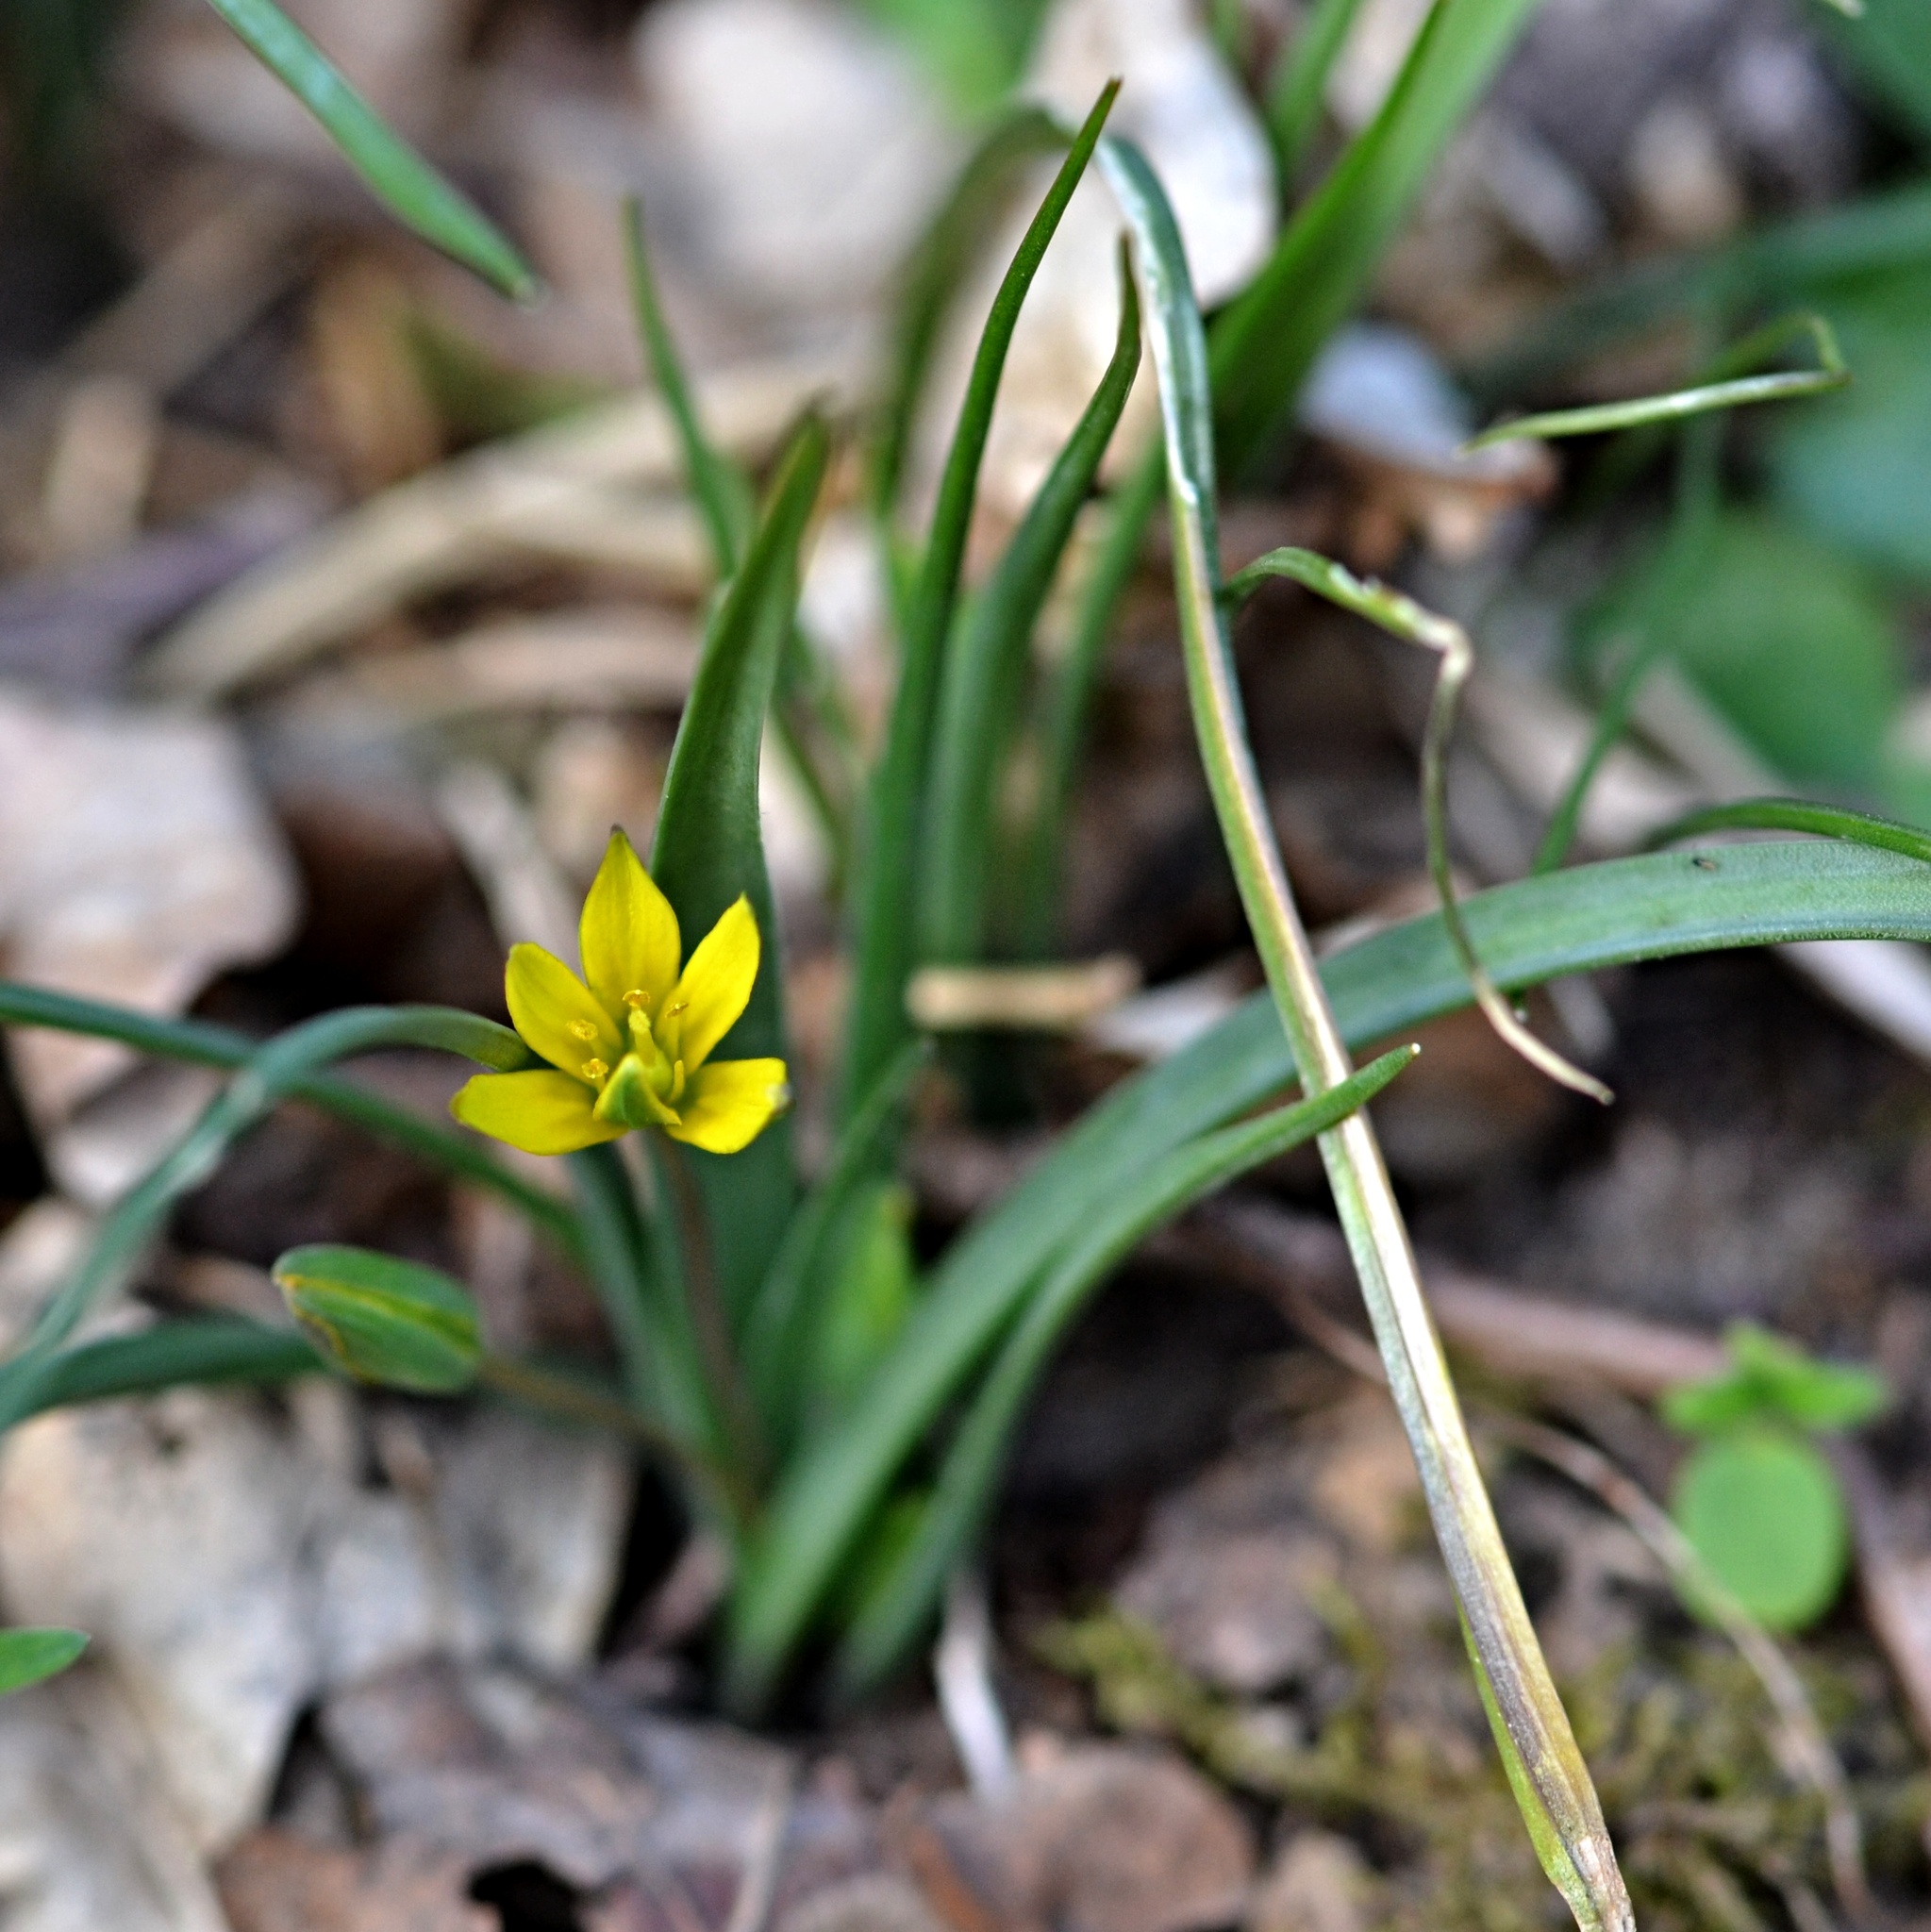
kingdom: Plantae
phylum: Tracheophyta
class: Liliopsida
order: Liliales
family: Liliaceae
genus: Gagea
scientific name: Gagea pratensis
